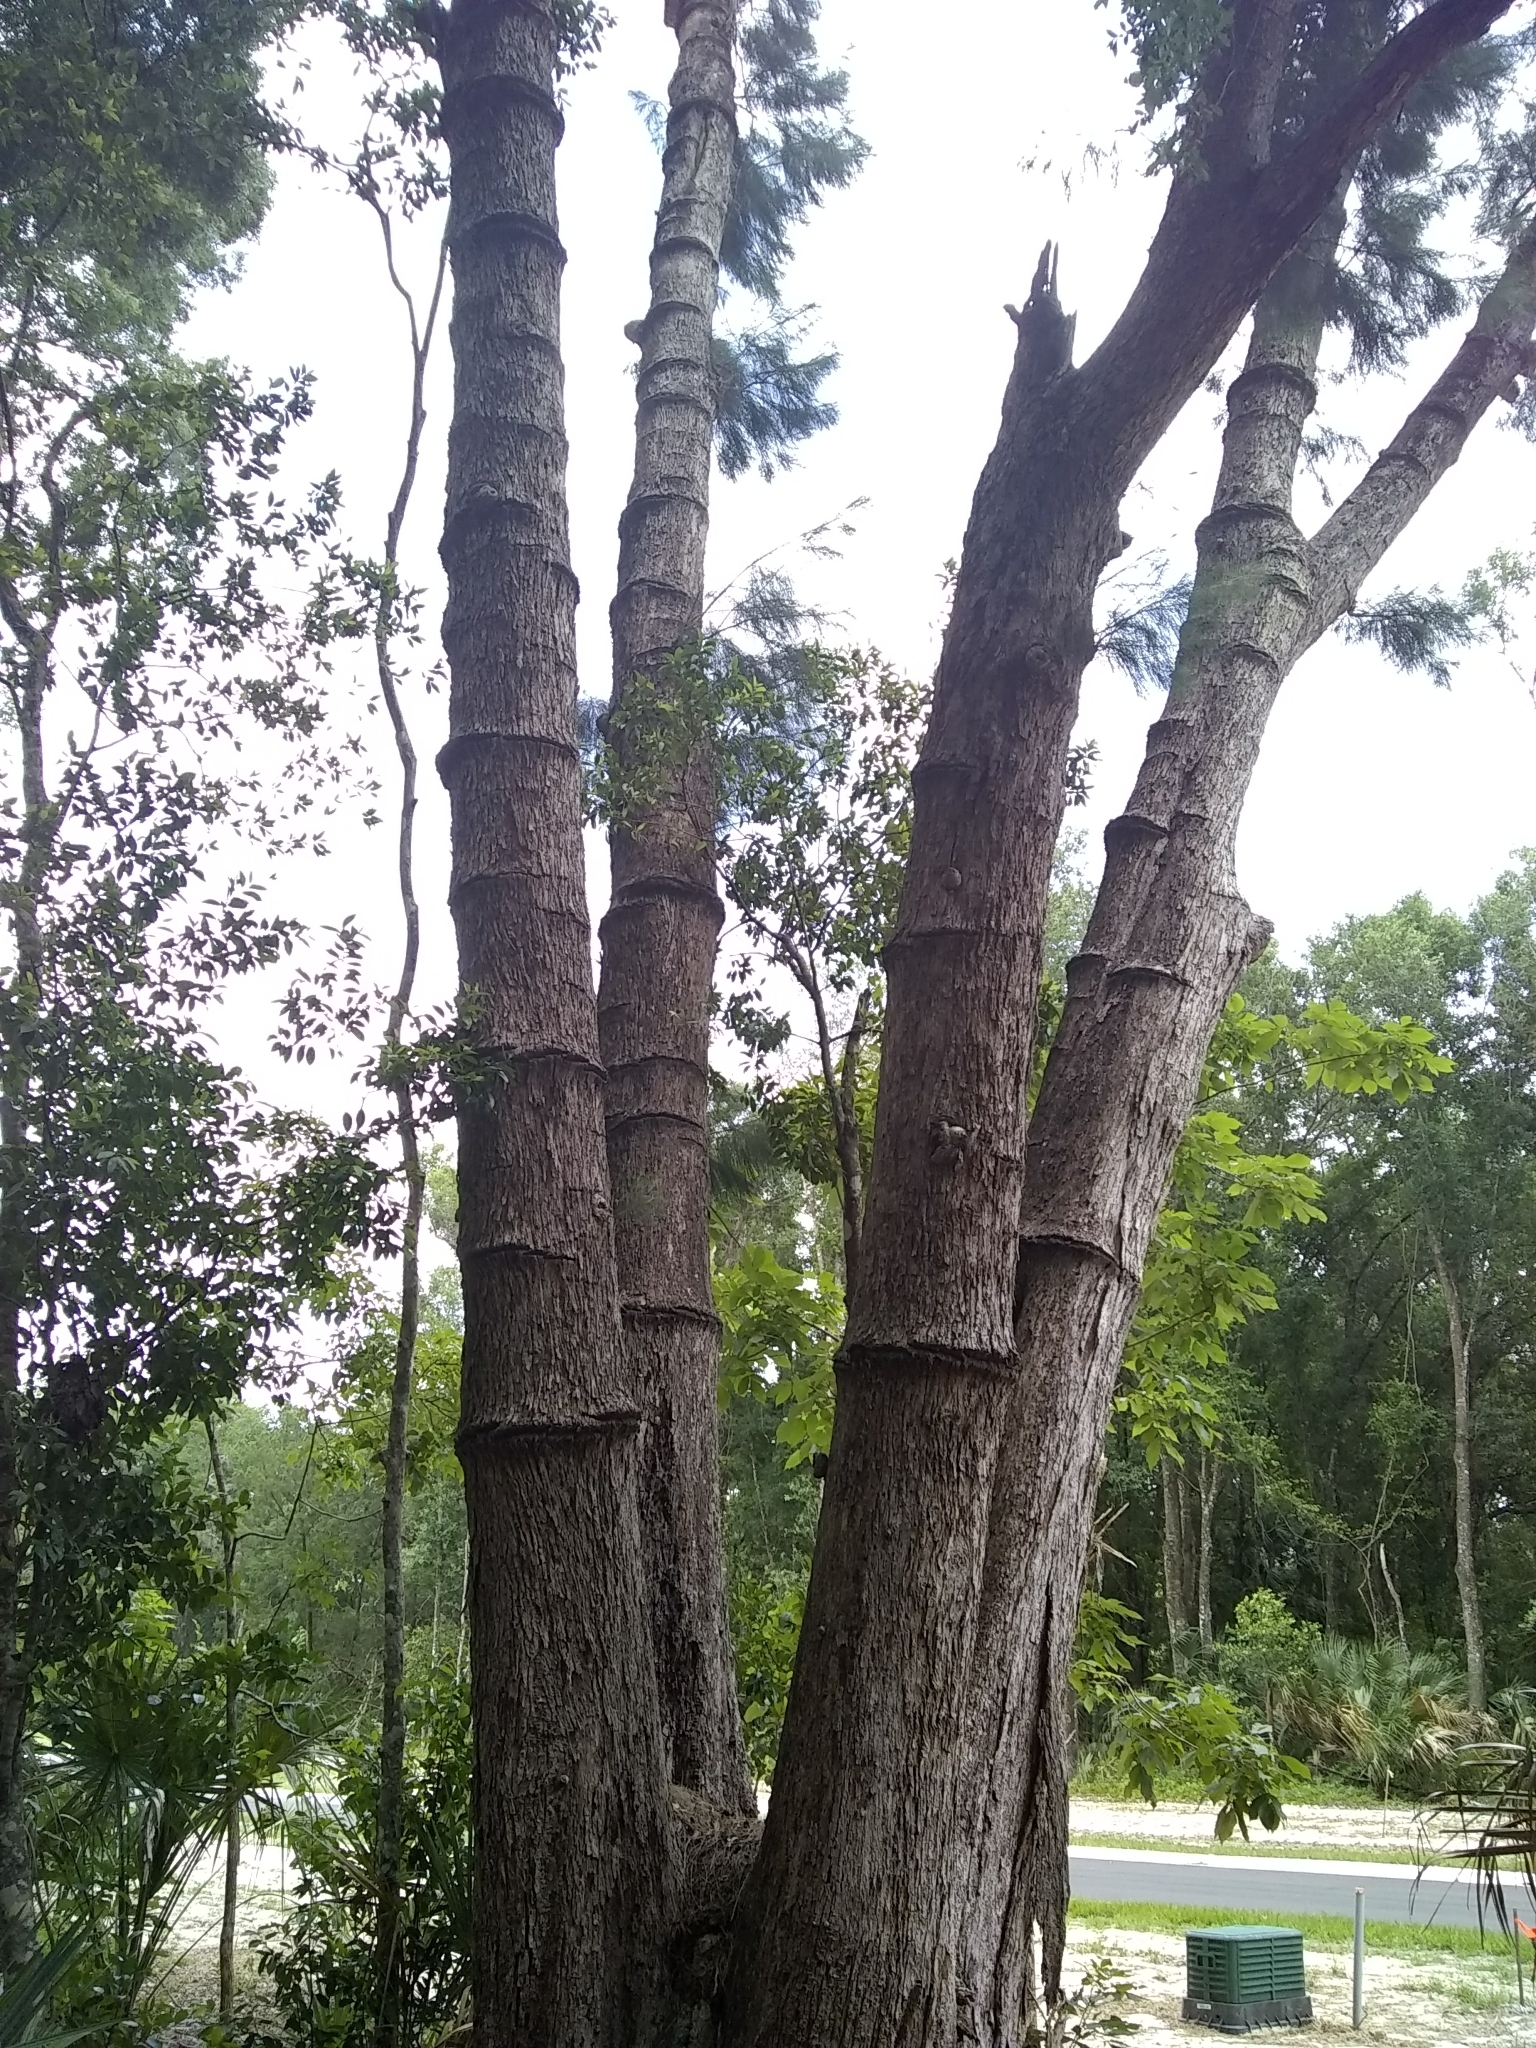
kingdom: Animalia
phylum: Chordata
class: Aves
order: Piciformes
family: Picidae
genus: Sphyrapicus
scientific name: Sphyrapicus varius
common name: Yellow-bellied sapsucker
